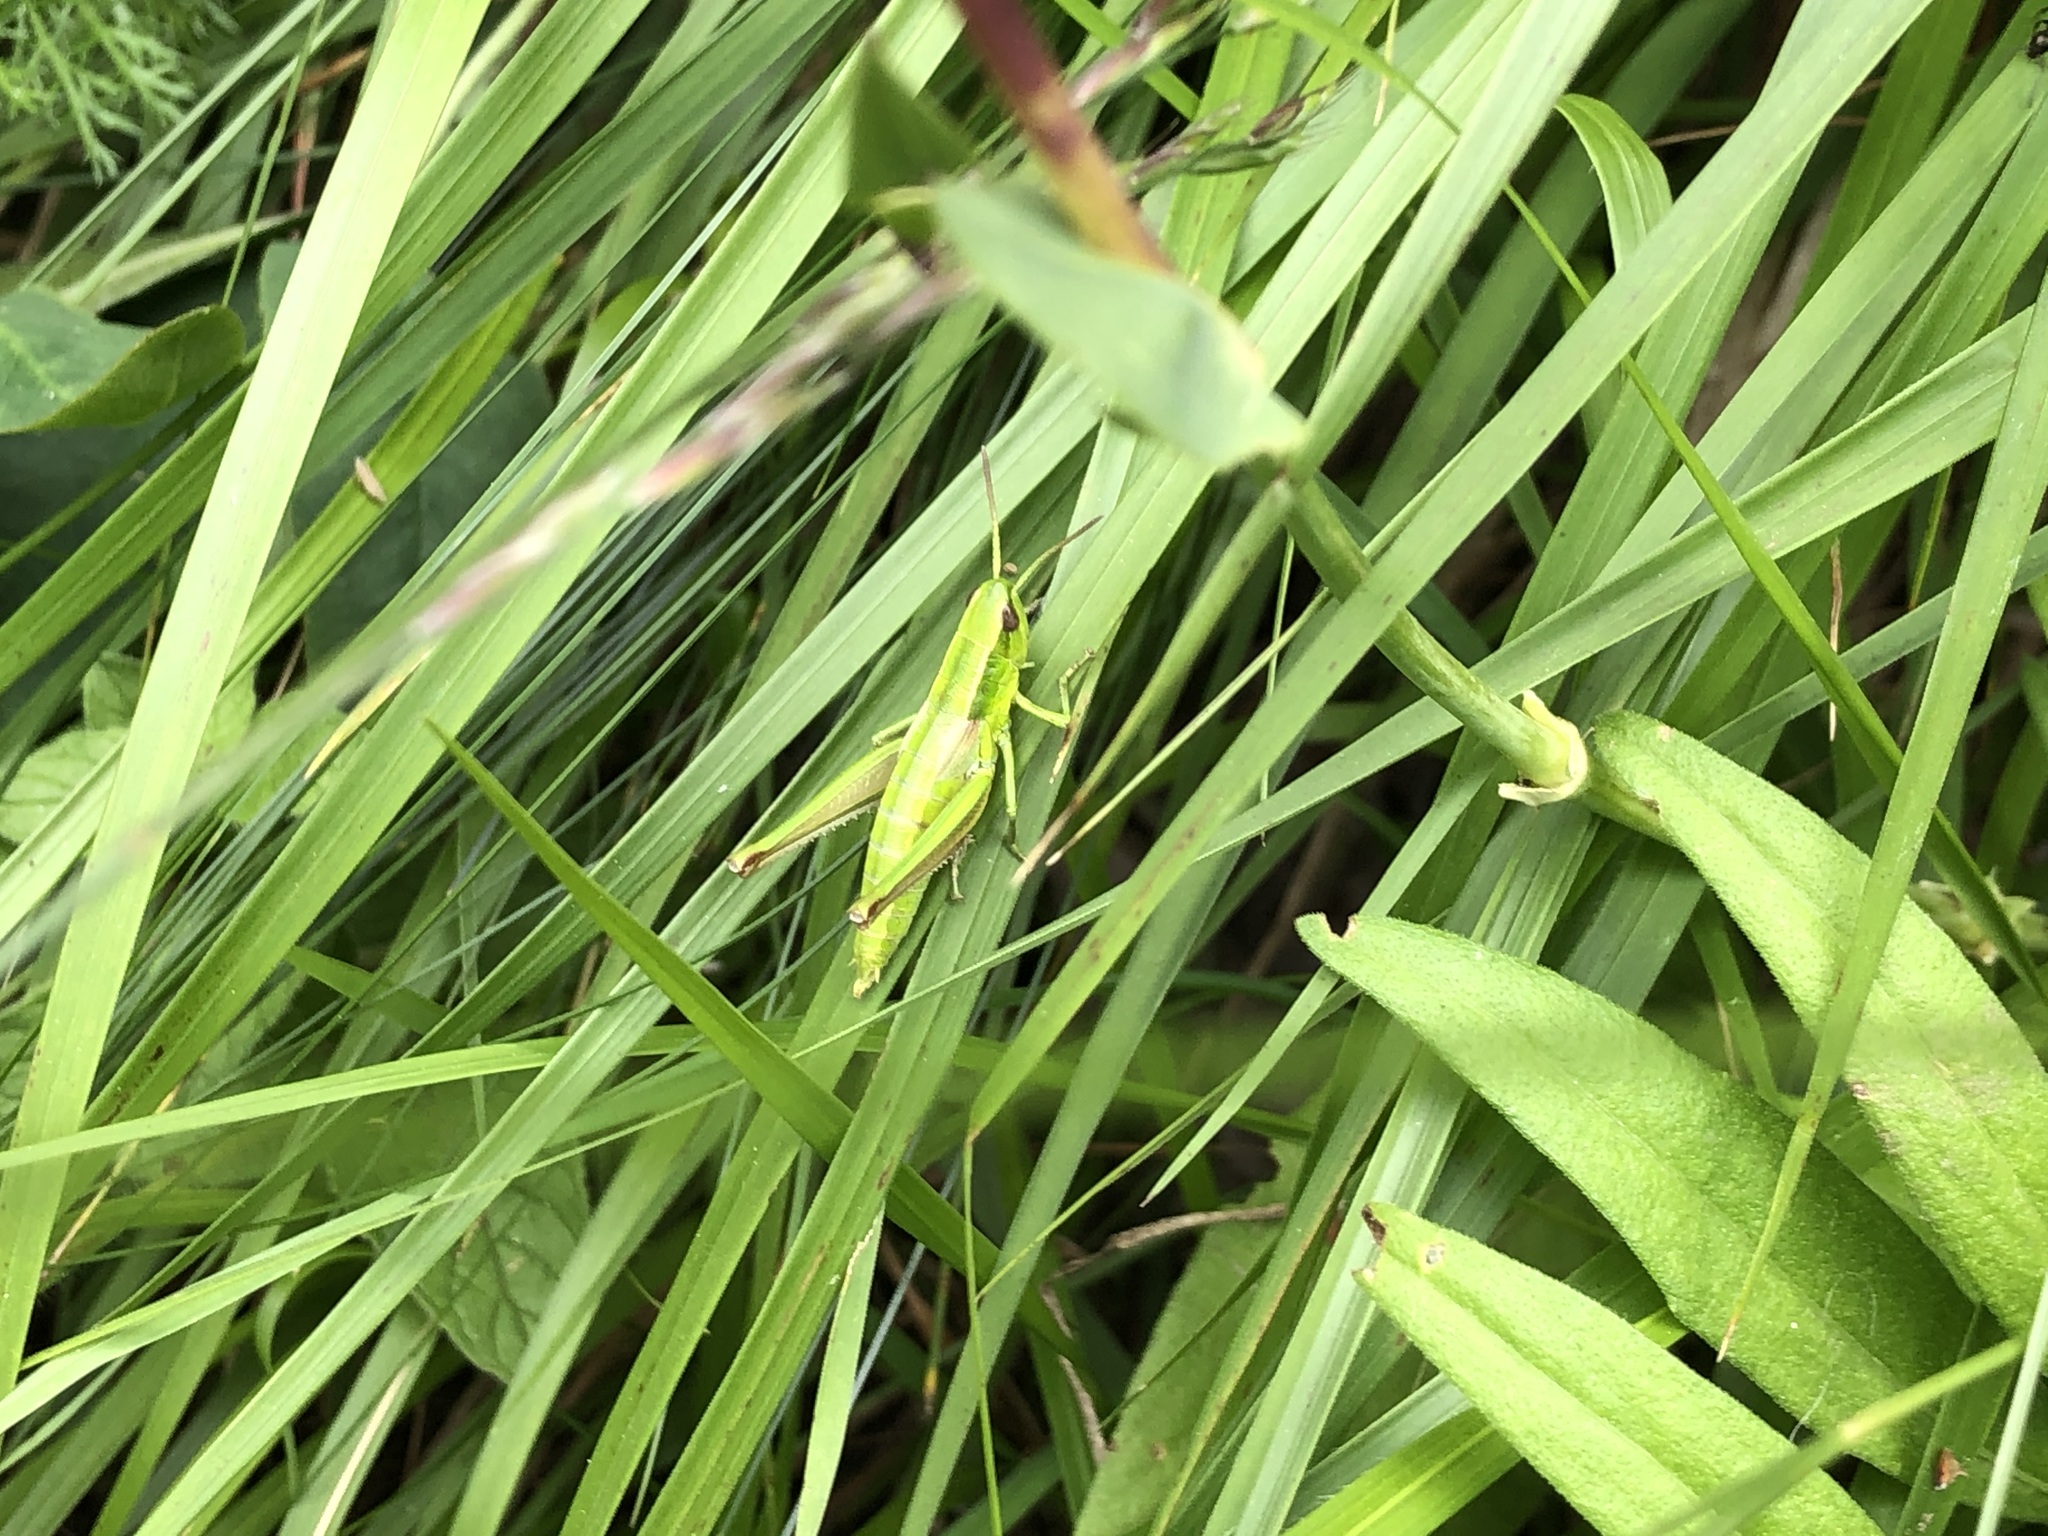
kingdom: Animalia
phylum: Arthropoda
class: Insecta
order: Orthoptera
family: Acrididae
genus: Euthystira
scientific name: Euthystira brachyptera
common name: Small gold grasshopper
